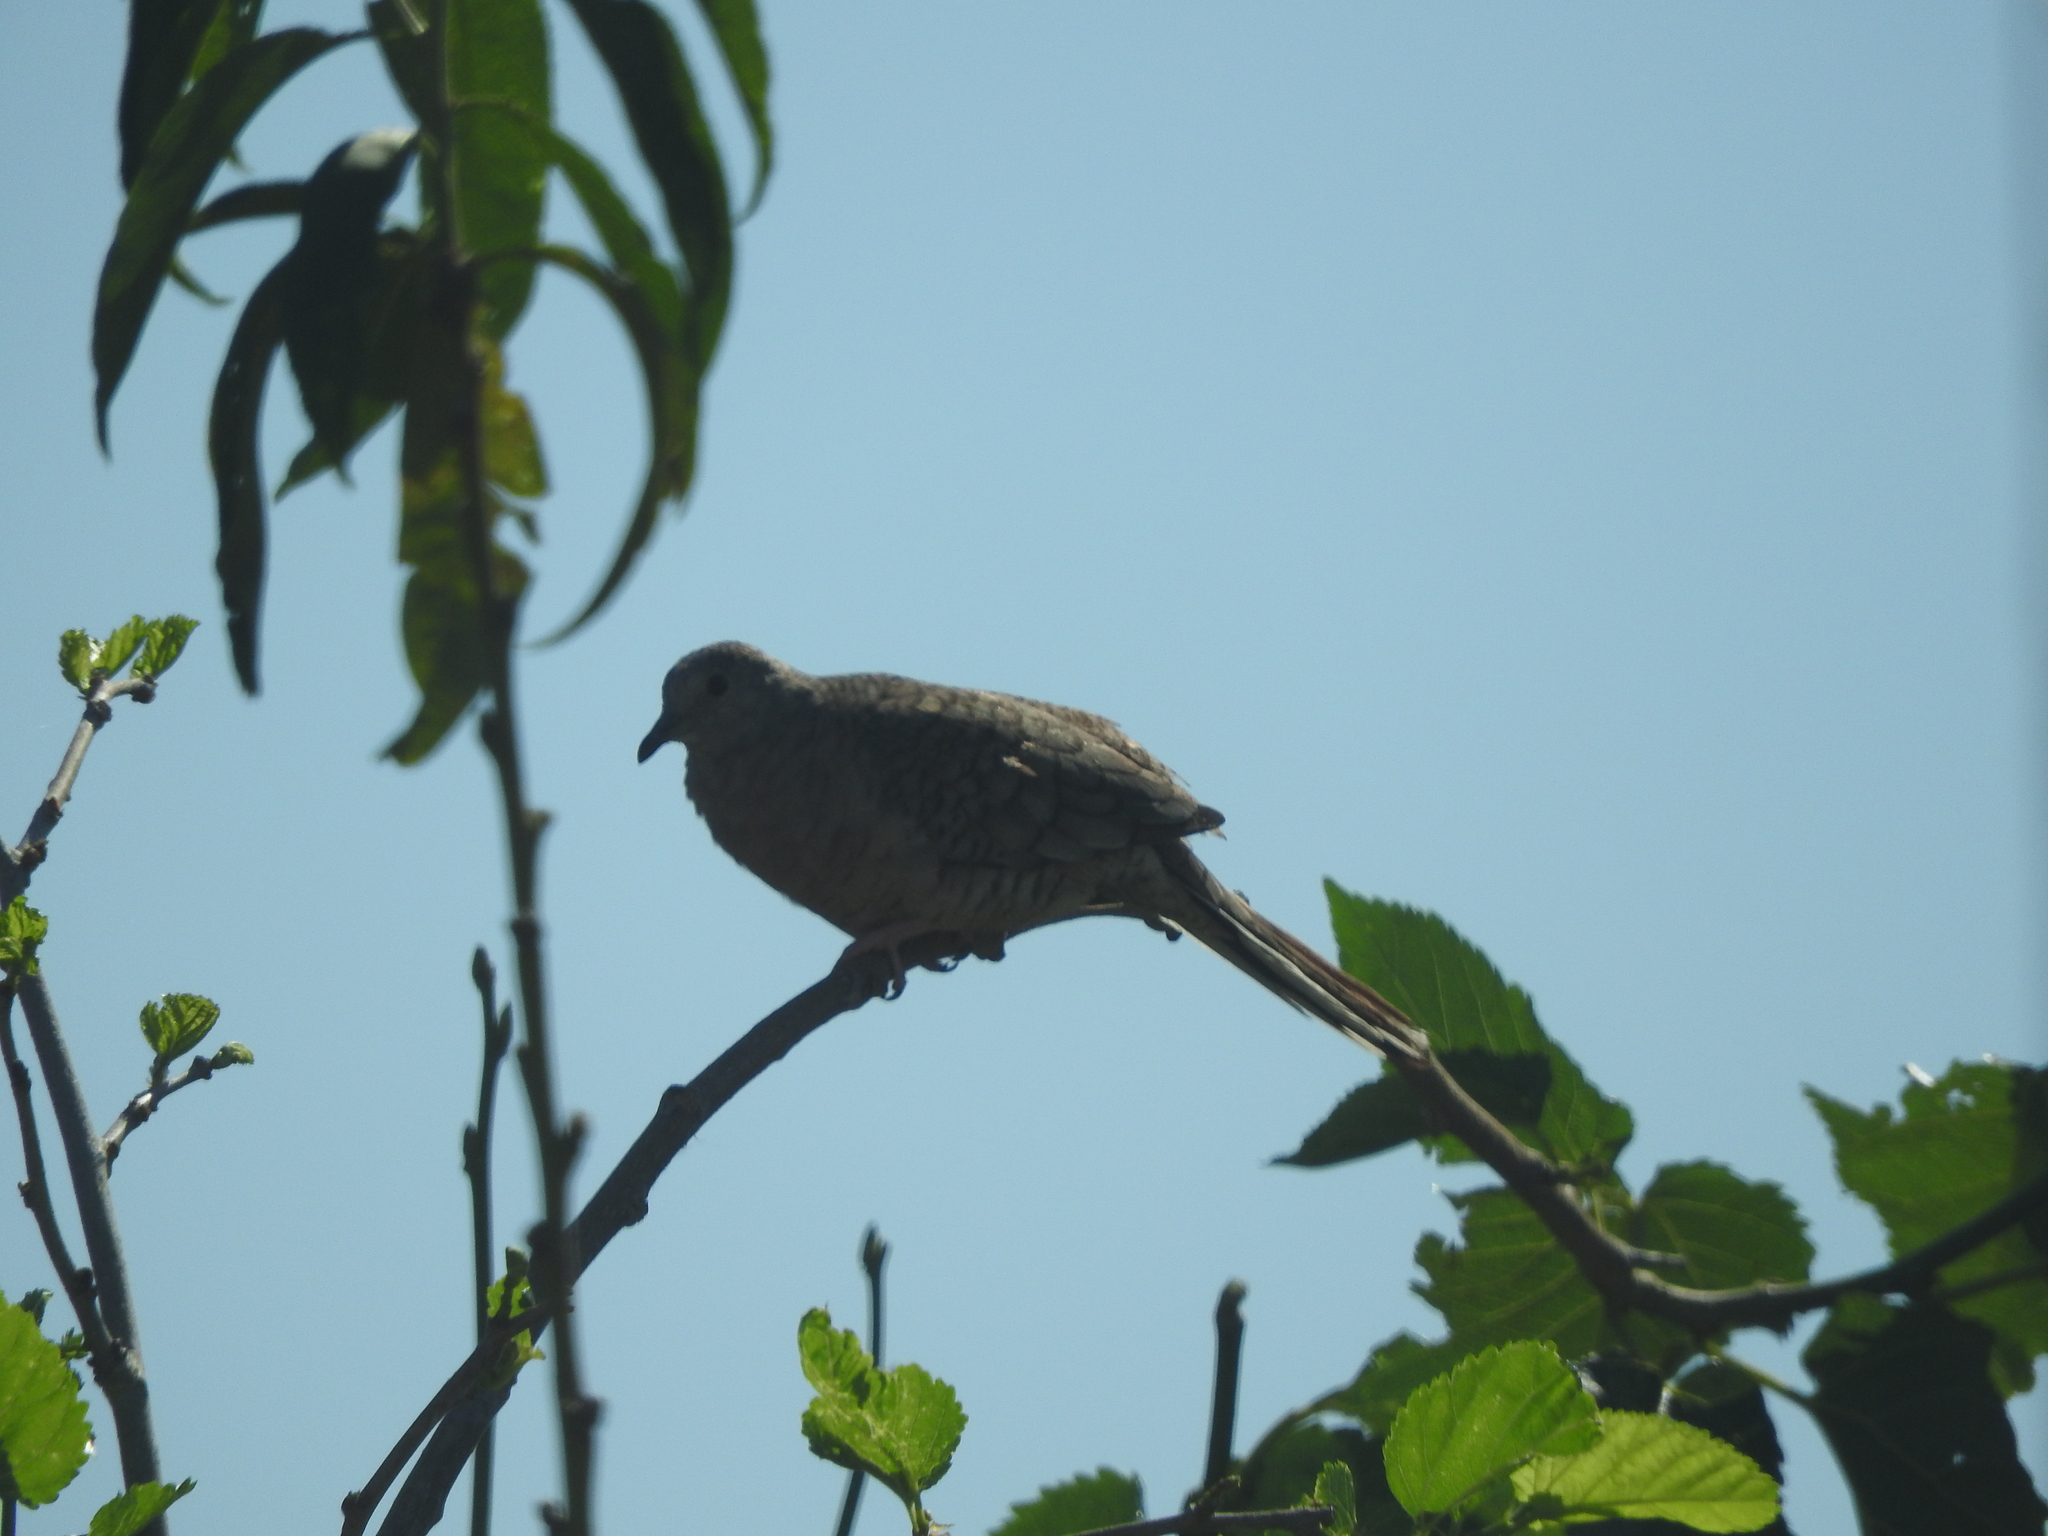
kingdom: Animalia
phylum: Chordata
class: Aves
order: Columbiformes
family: Columbidae
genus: Columbina
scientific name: Columbina inca
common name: Inca dove
